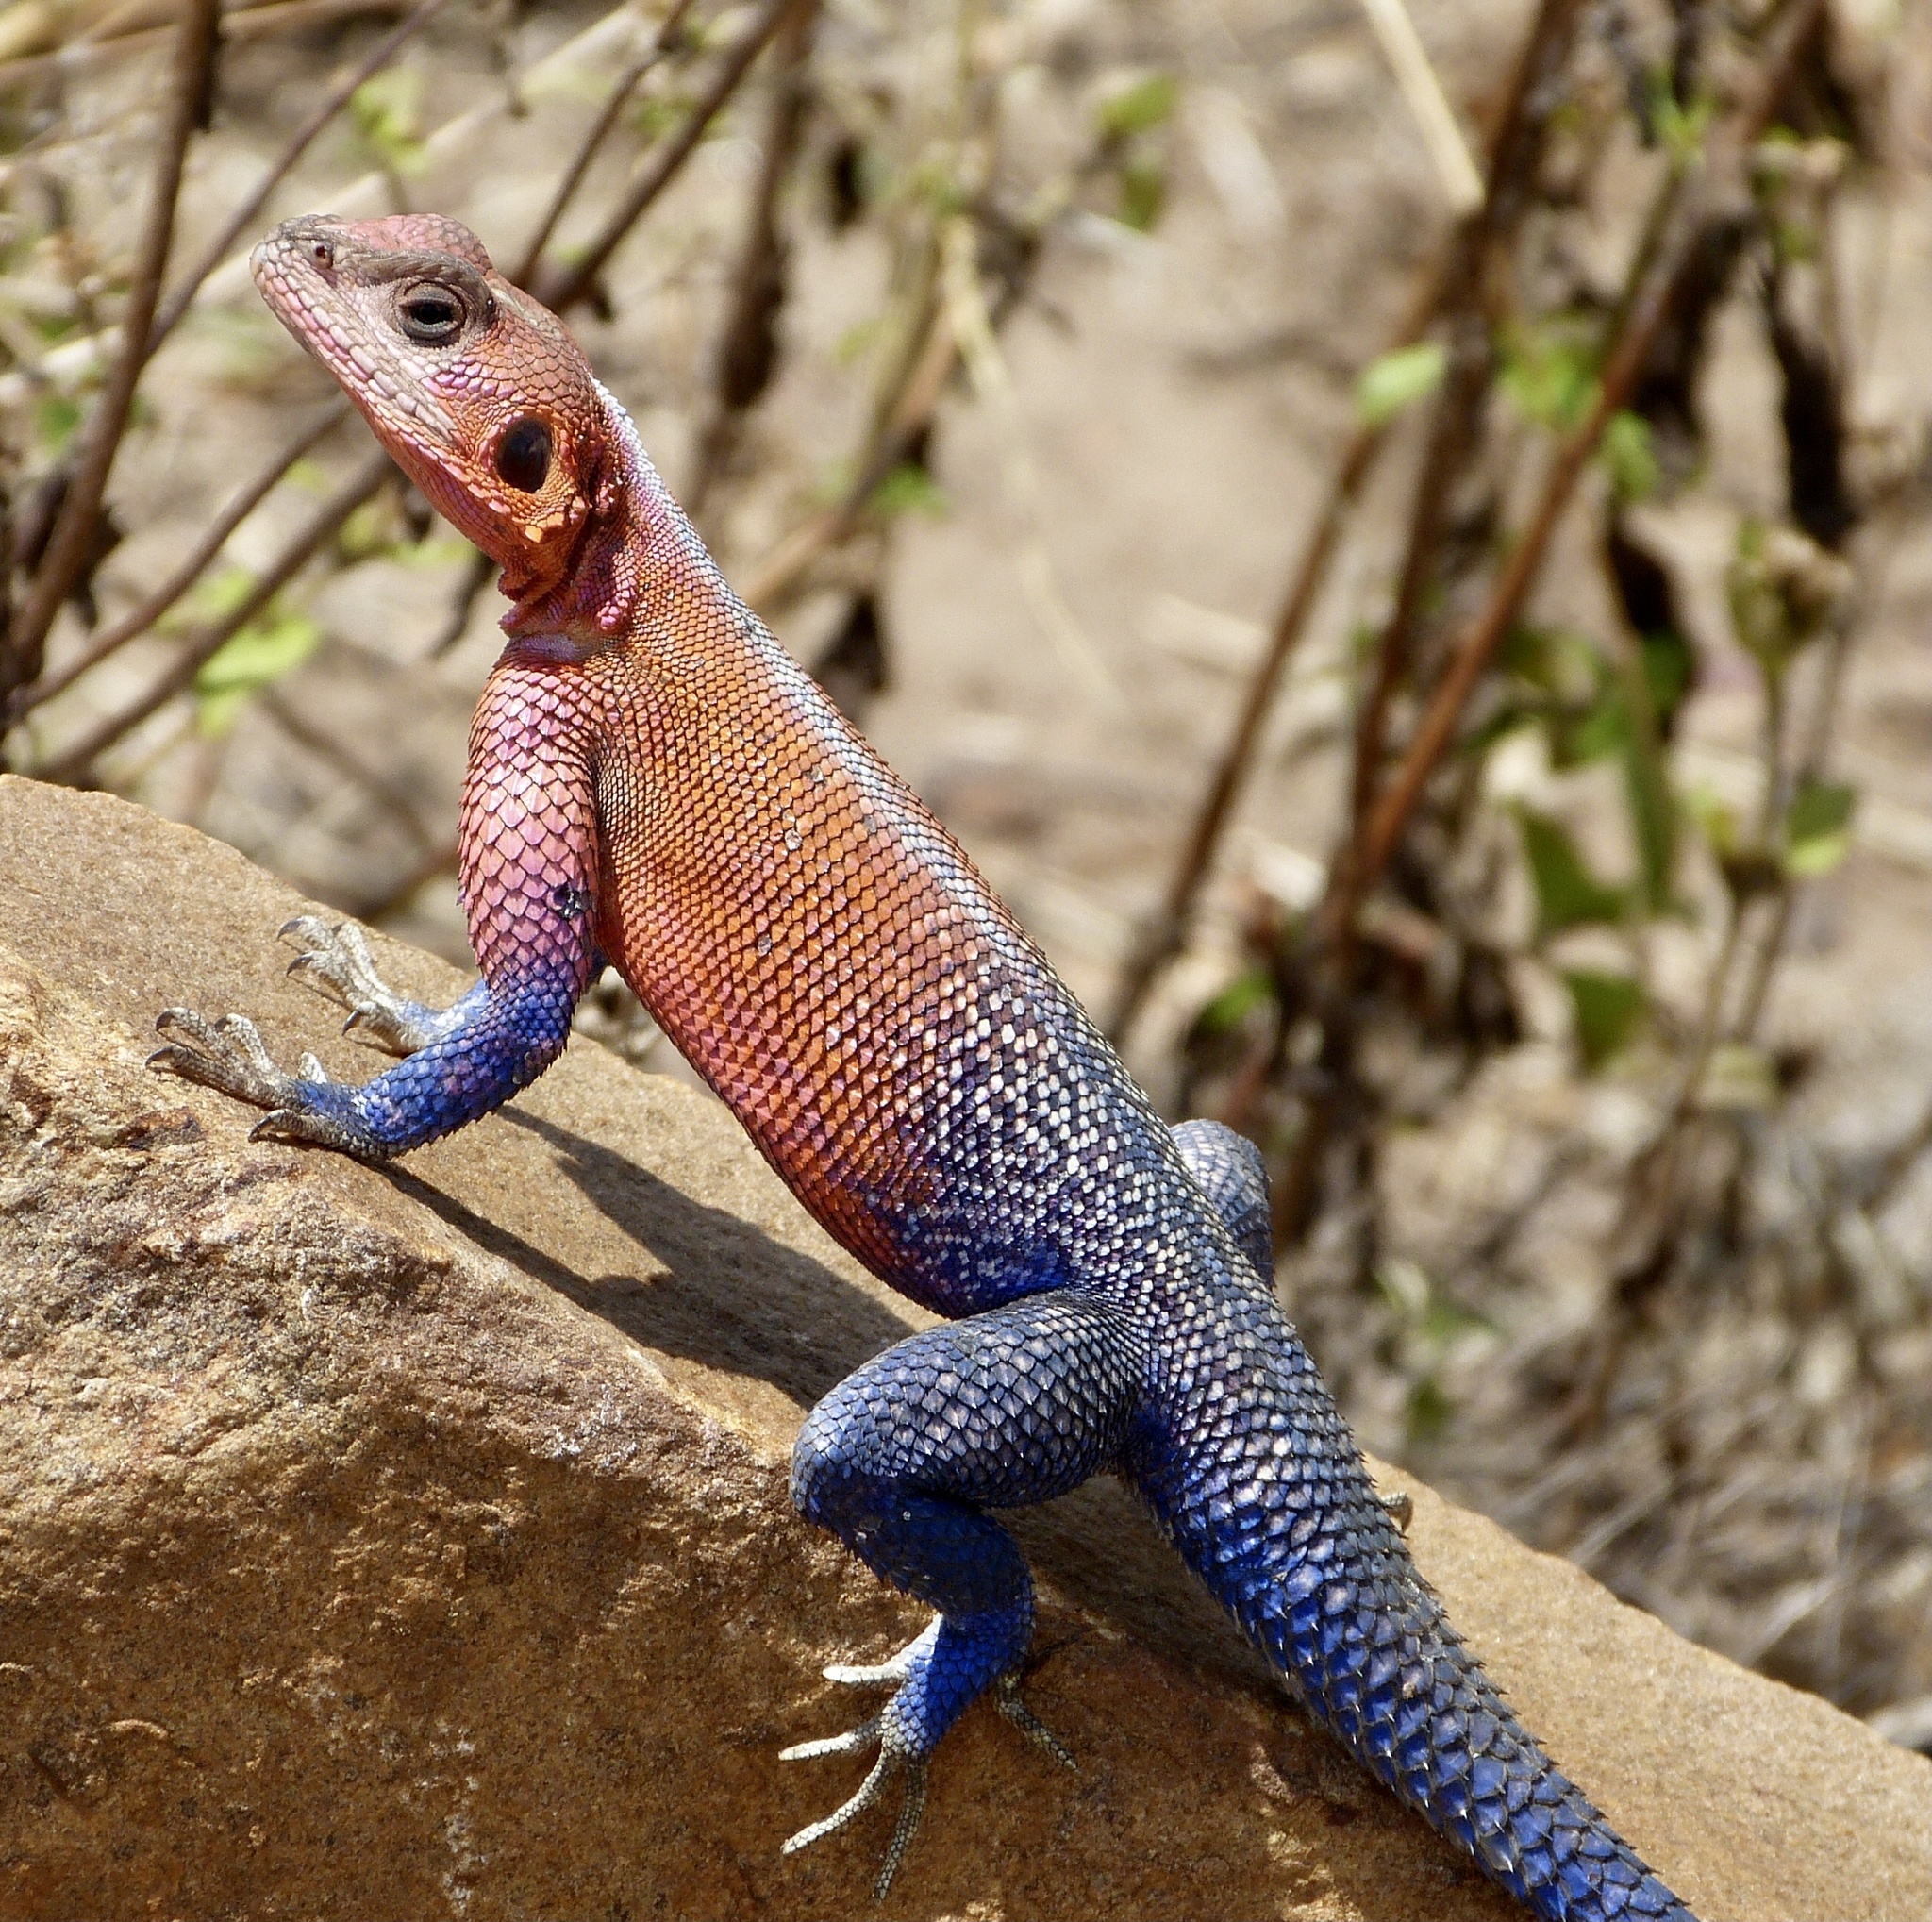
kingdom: Animalia
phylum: Chordata
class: Squamata
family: Agamidae
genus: Agama
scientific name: Agama mwanzae
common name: Mwanza flat-headed agama
